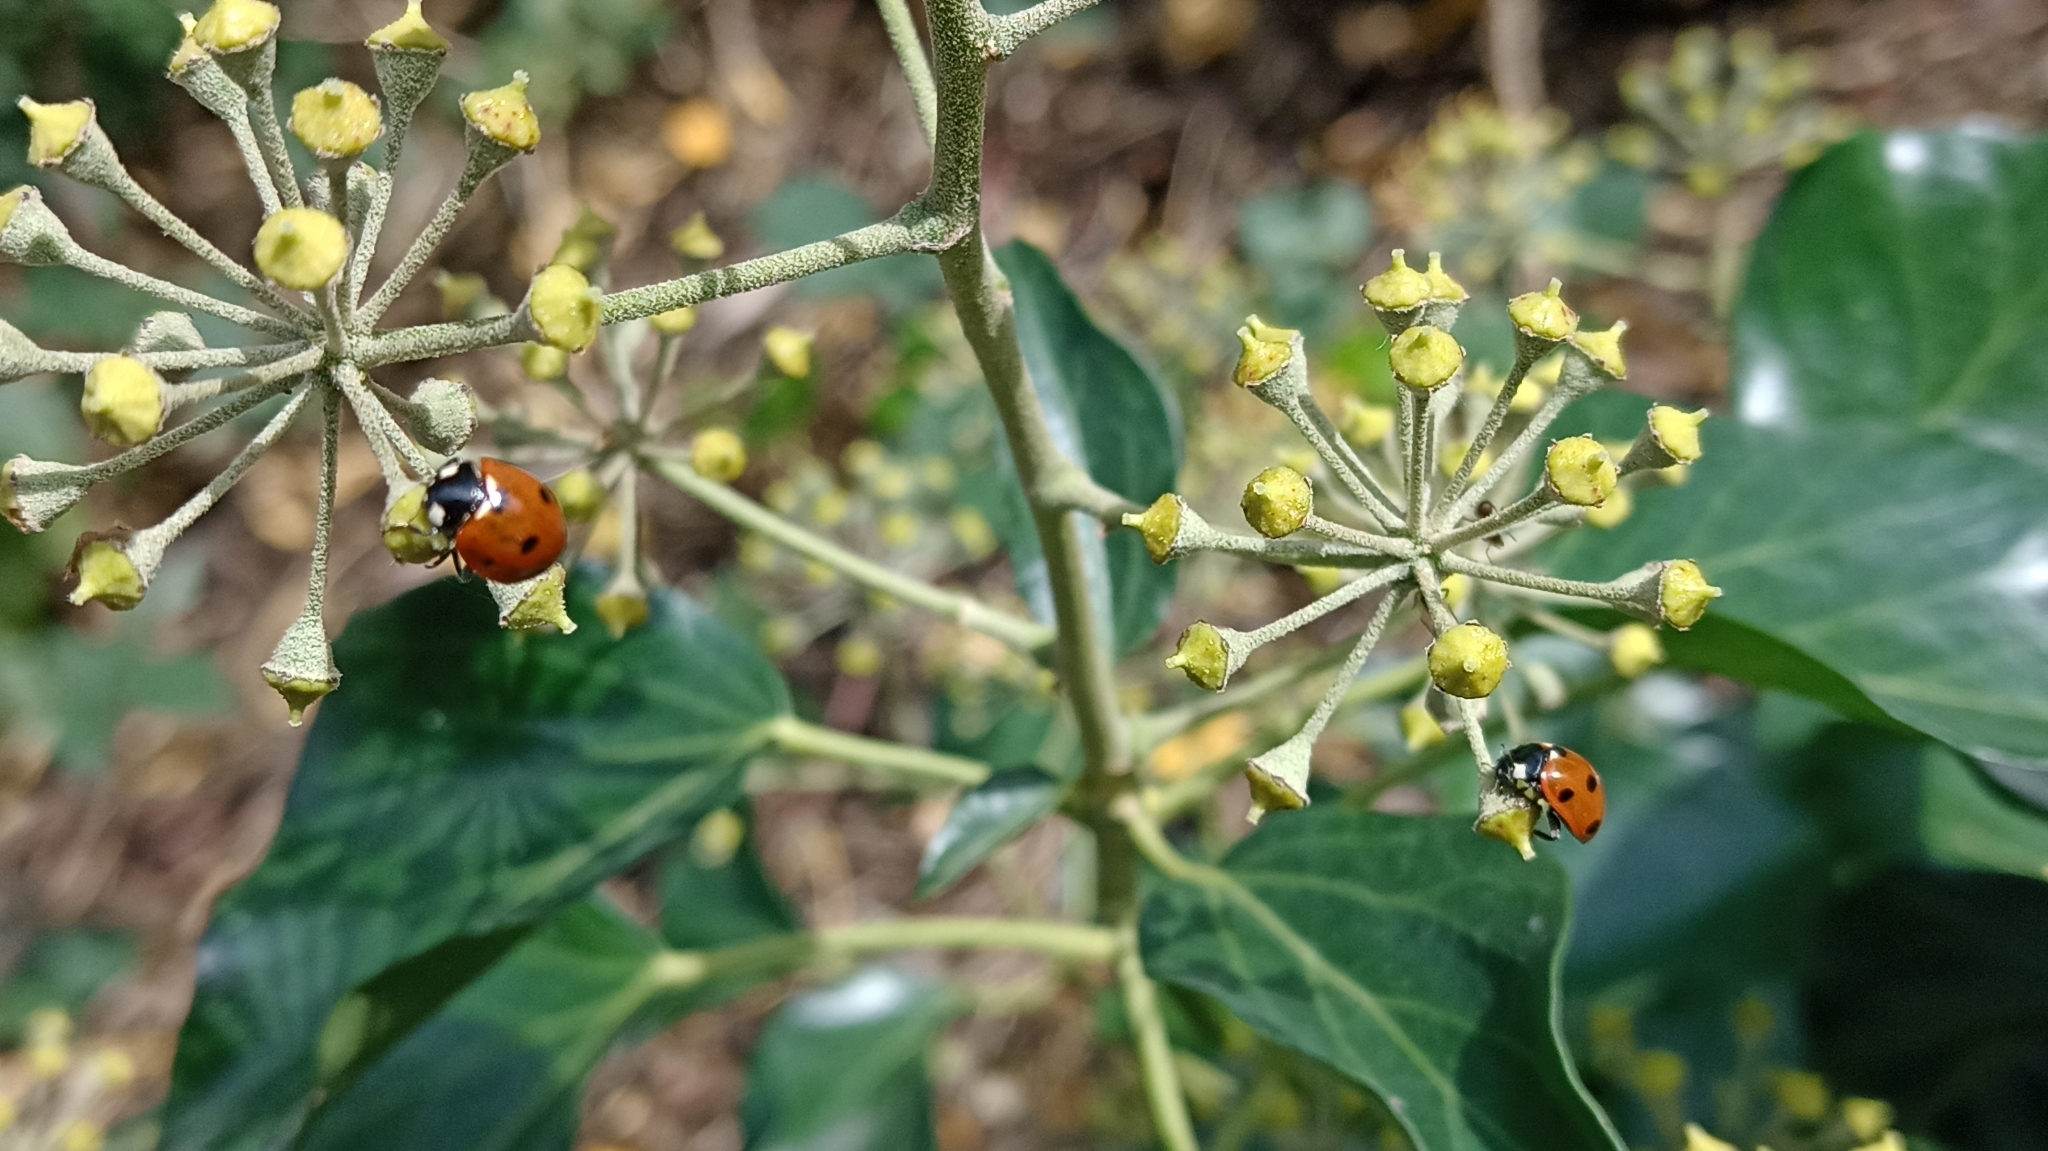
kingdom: Animalia
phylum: Arthropoda
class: Insecta
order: Coleoptera
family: Coccinellidae
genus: Coccinella
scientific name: Coccinella septempunctata
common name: Sevenspotted lady beetle
